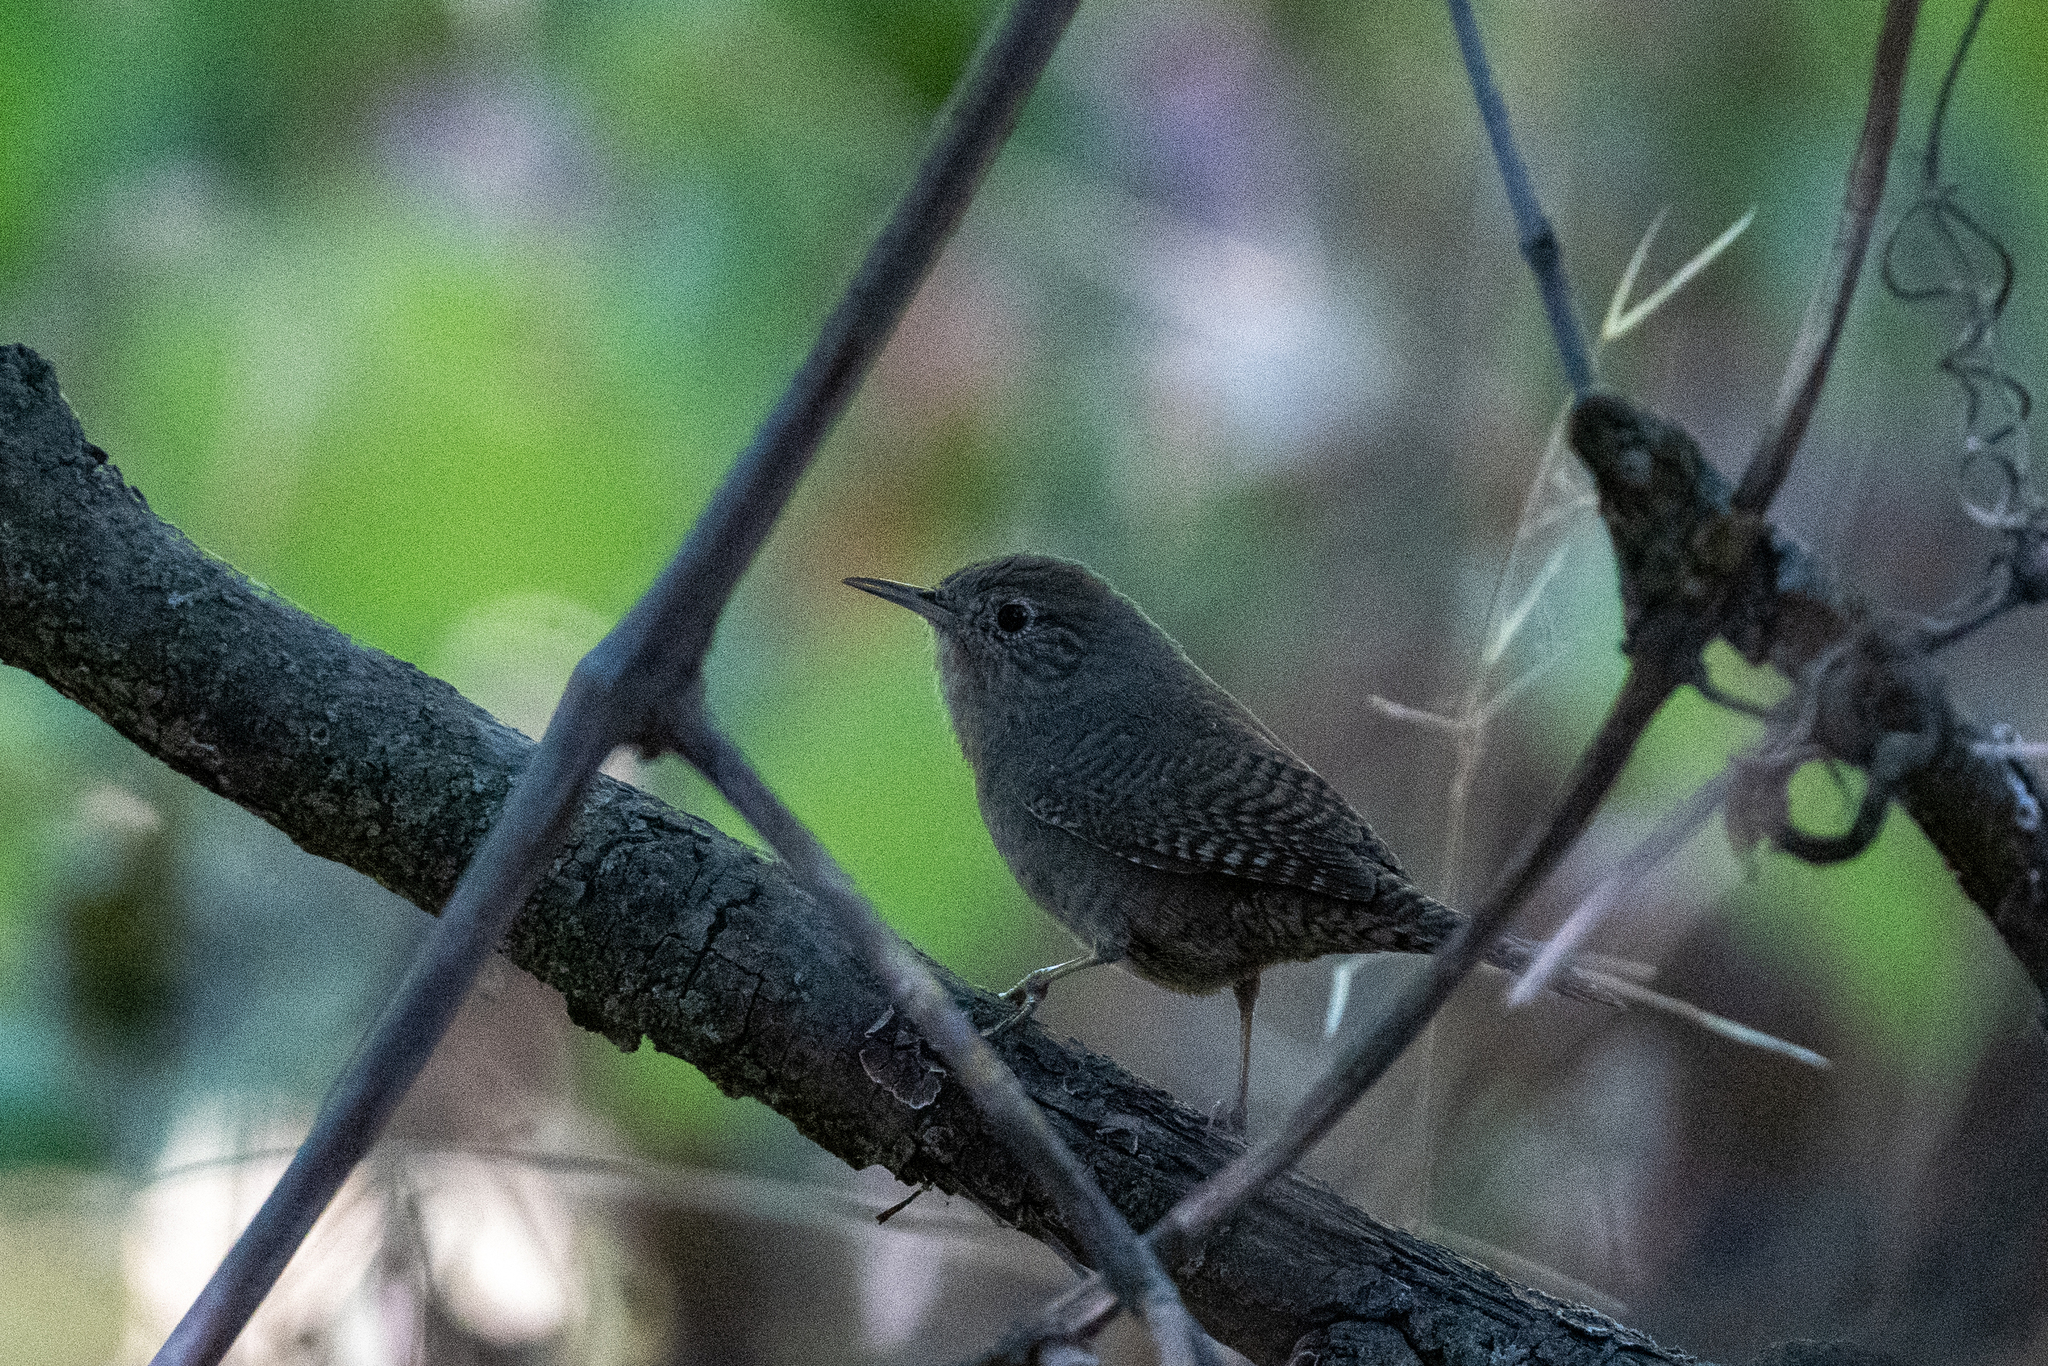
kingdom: Animalia
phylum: Chordata
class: Aves
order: Passeriformes
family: Troglodytidae
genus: Troglodytes
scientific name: Troglodytes aedon
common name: House wren
